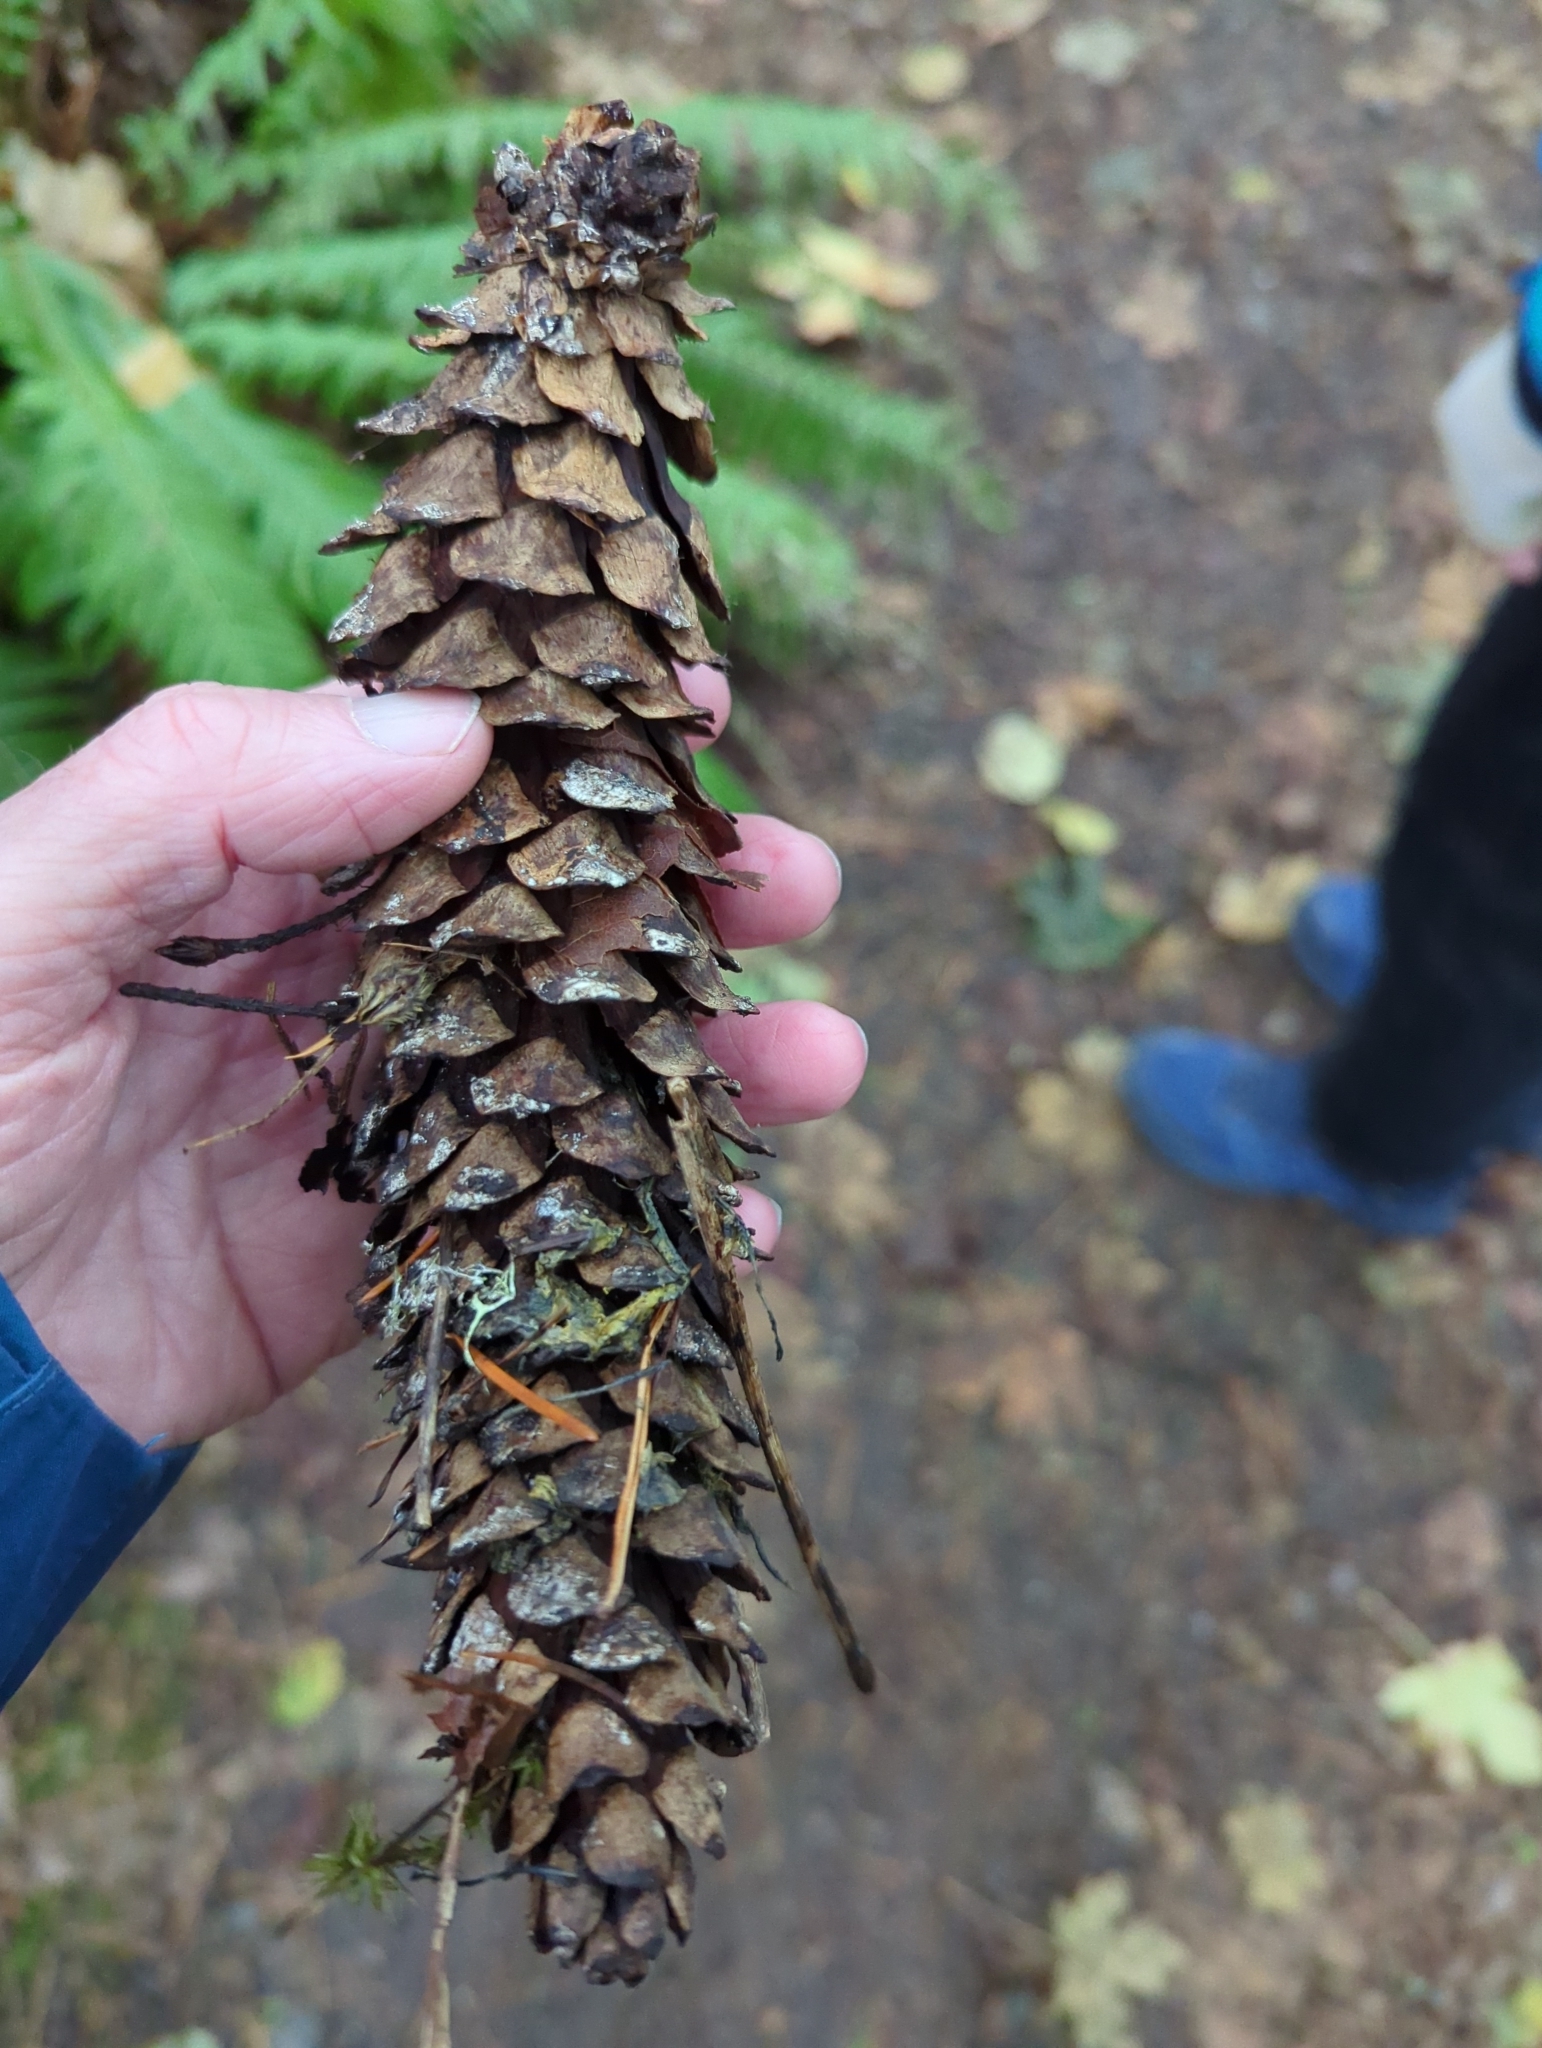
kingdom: Plantae
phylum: Tracheophyta
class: Pinopsida
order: Pinales
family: Pinaceae
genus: Pinus
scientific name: Pinus monticola
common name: Western white pine
